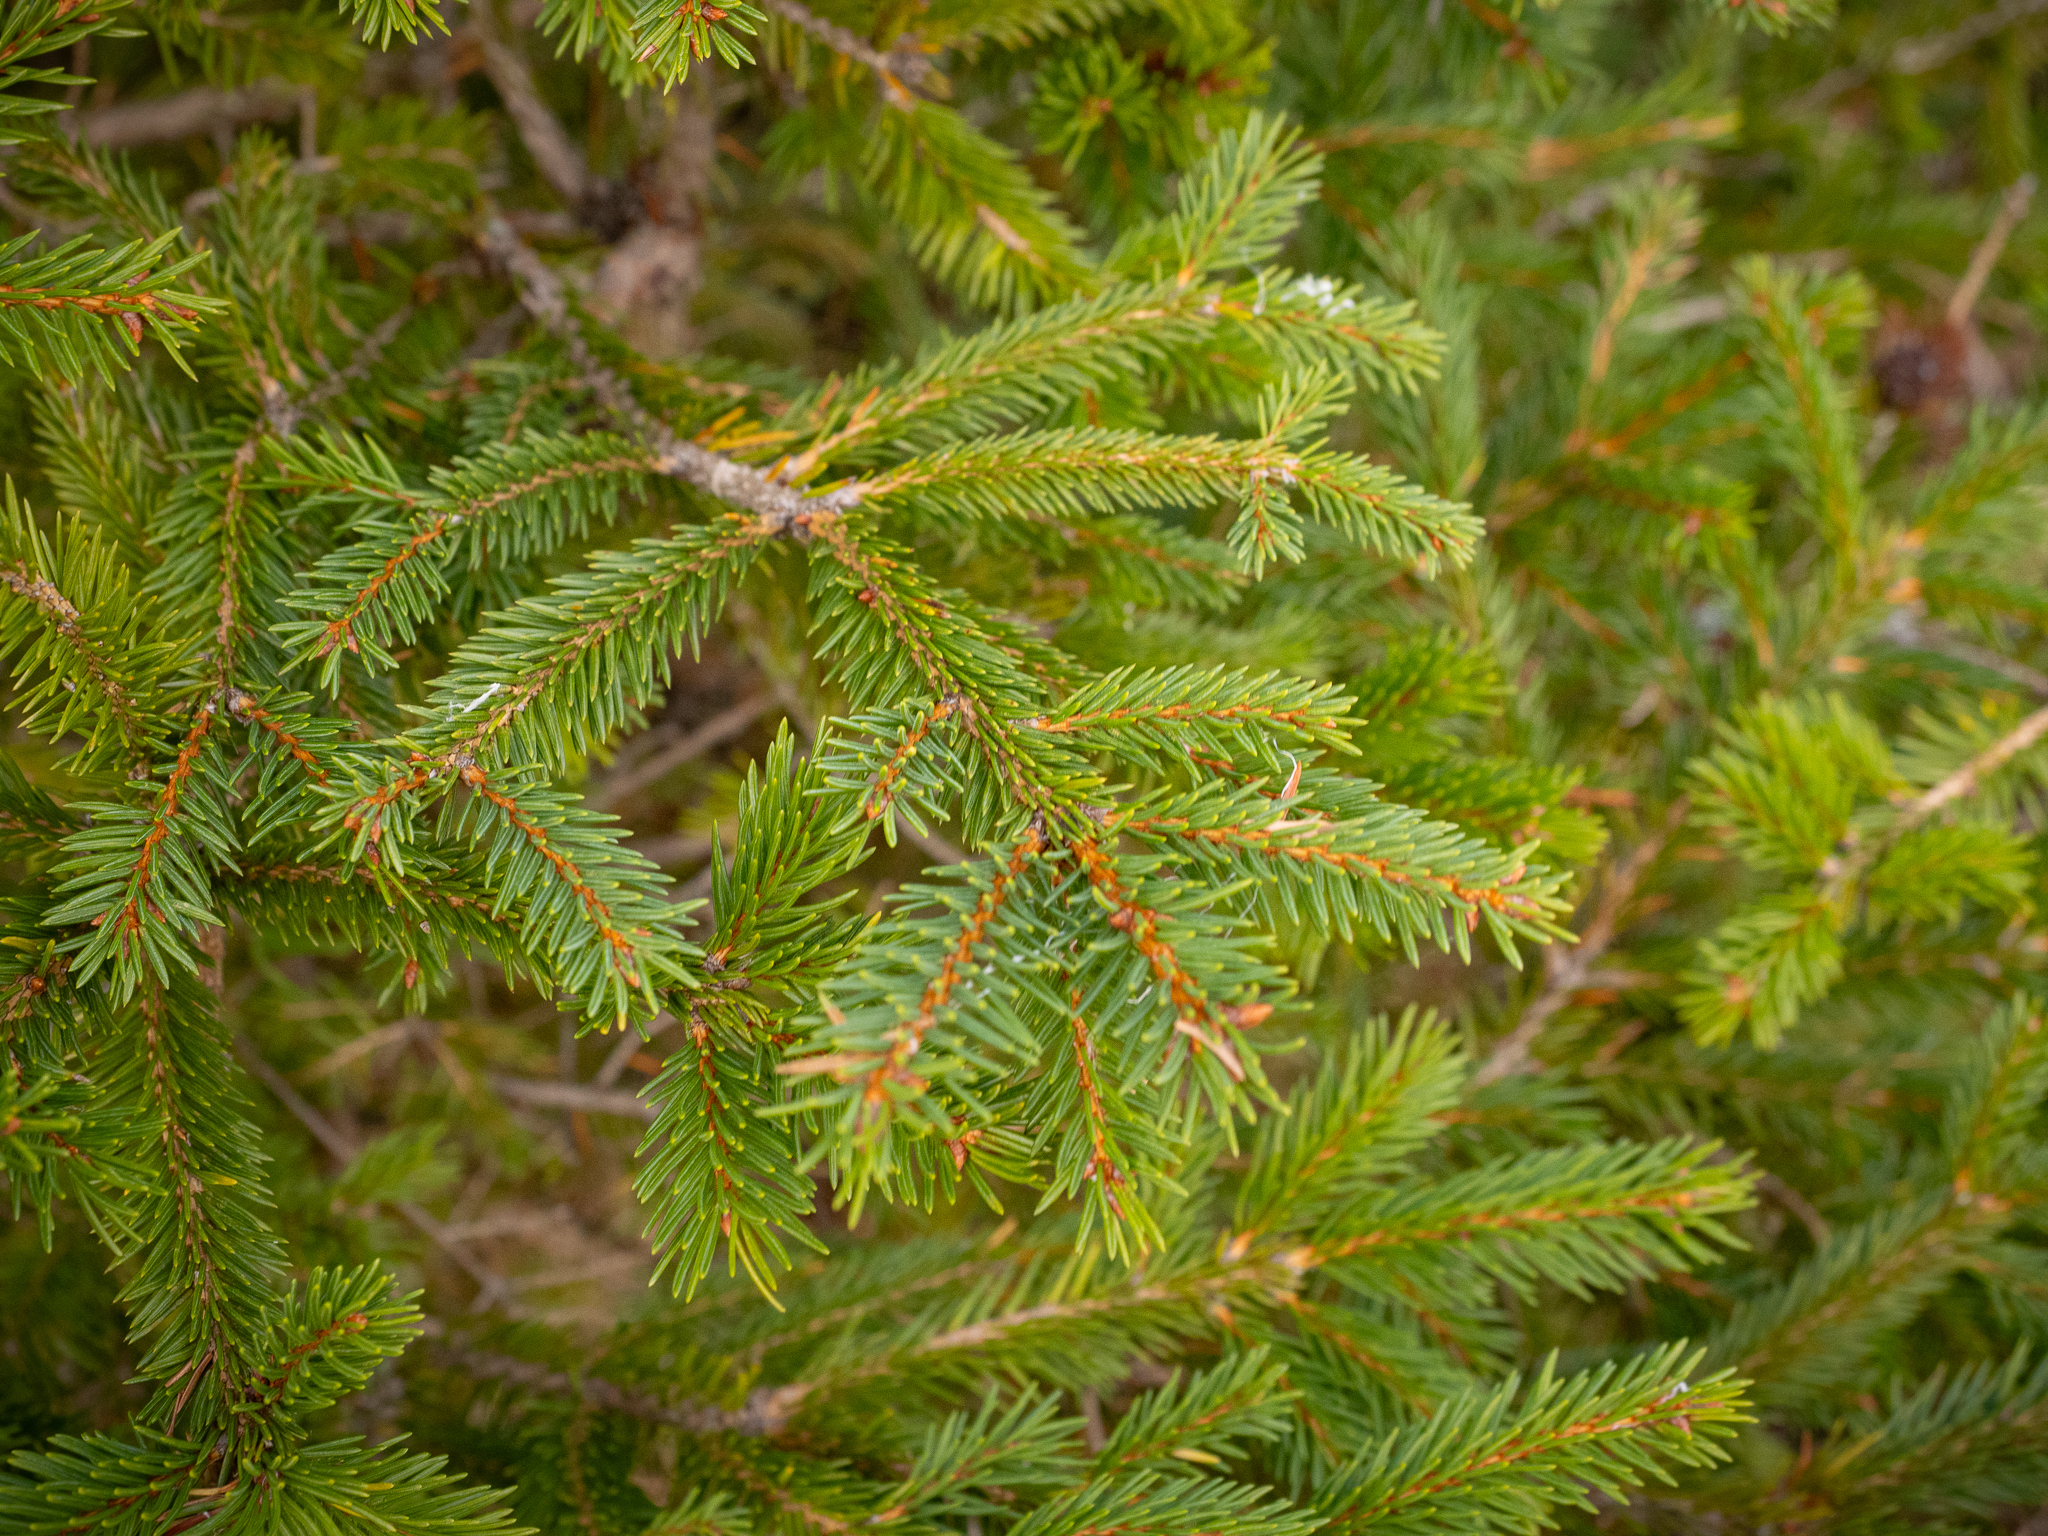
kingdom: Plantae
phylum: Tracheophyta
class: Pinopsida
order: Pinales
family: Pinaceae
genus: Picea
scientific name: Picea abies
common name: Norway spruce
